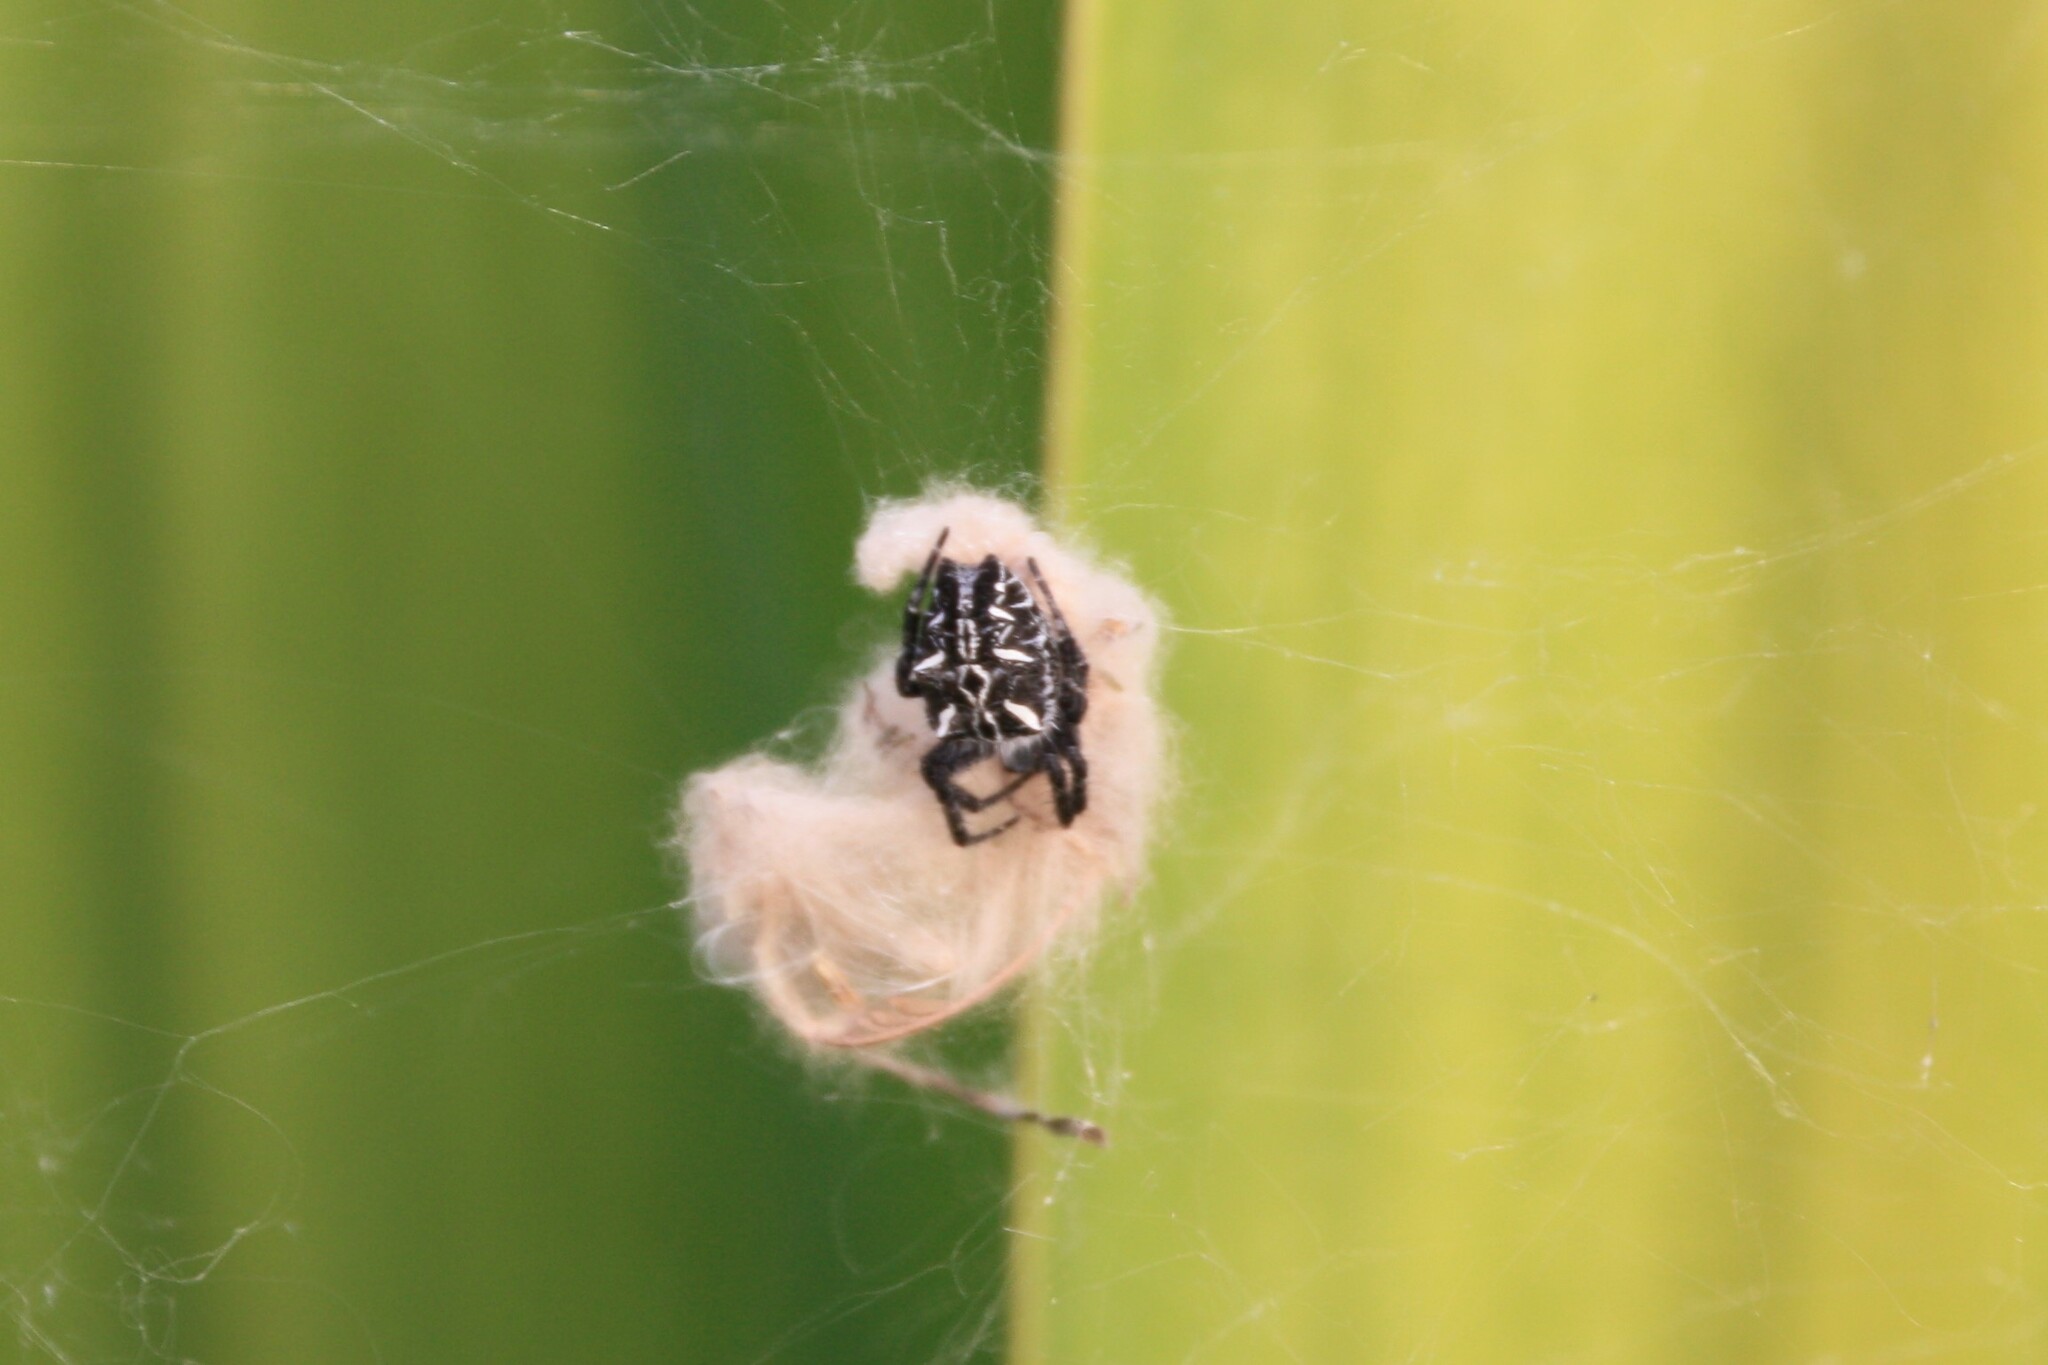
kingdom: Animalia
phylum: Arthropoda
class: Arachnida
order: Araneae
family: Araneidae
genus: Cyrtophora
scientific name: Cyrtophora citricola
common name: Orb weavers
